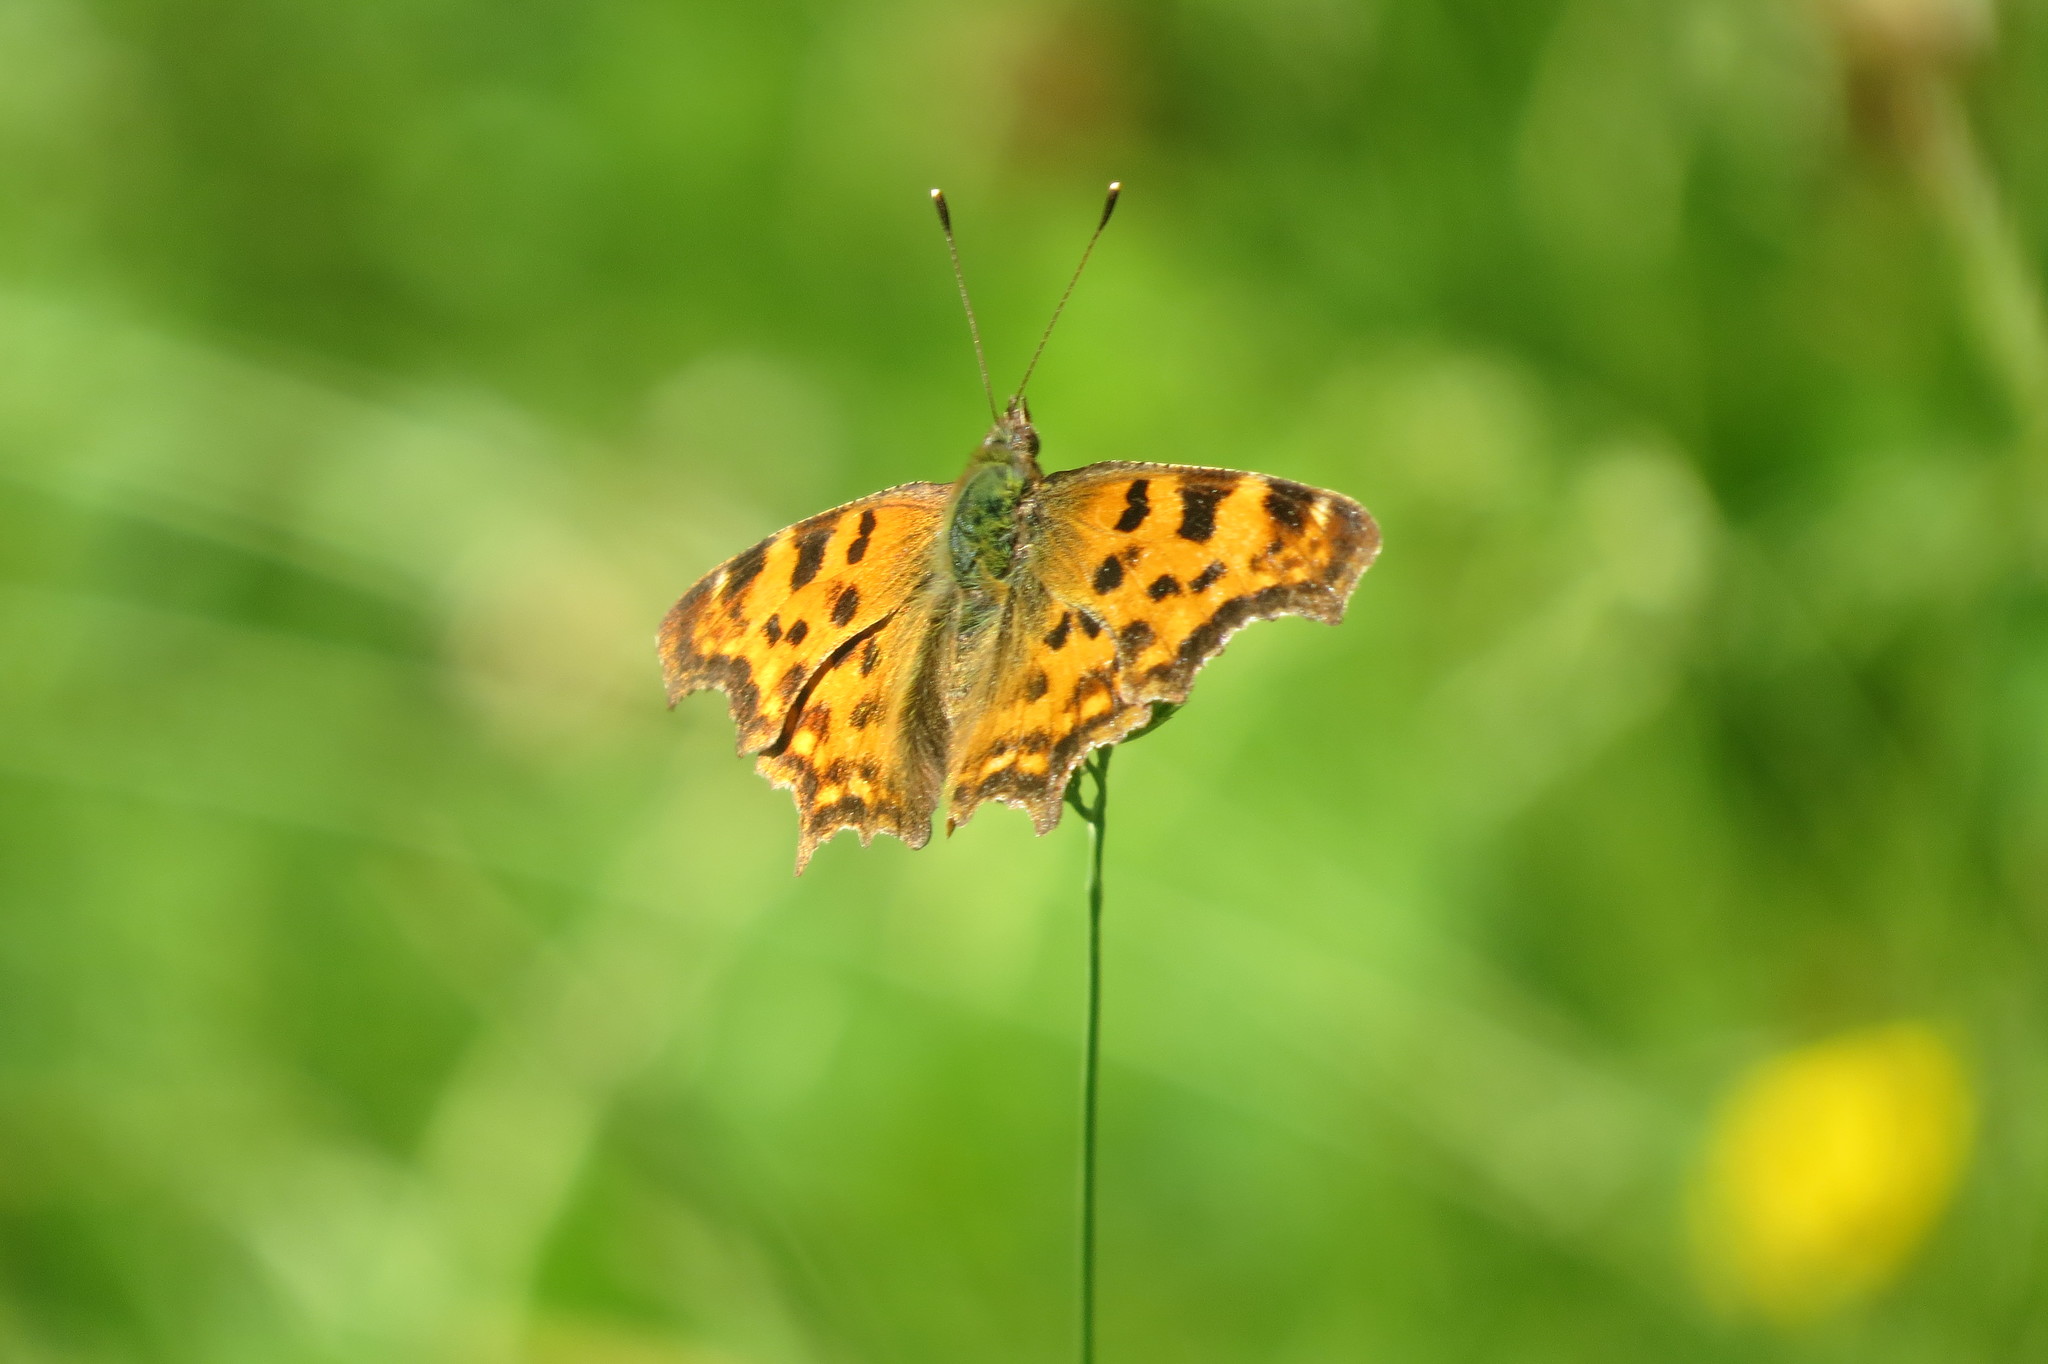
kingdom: Animalia
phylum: Arthropoda
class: Insecta
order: Lepidoptera
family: Nymphalidae
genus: Polygonia
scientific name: Polygonia c-album
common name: Comma
